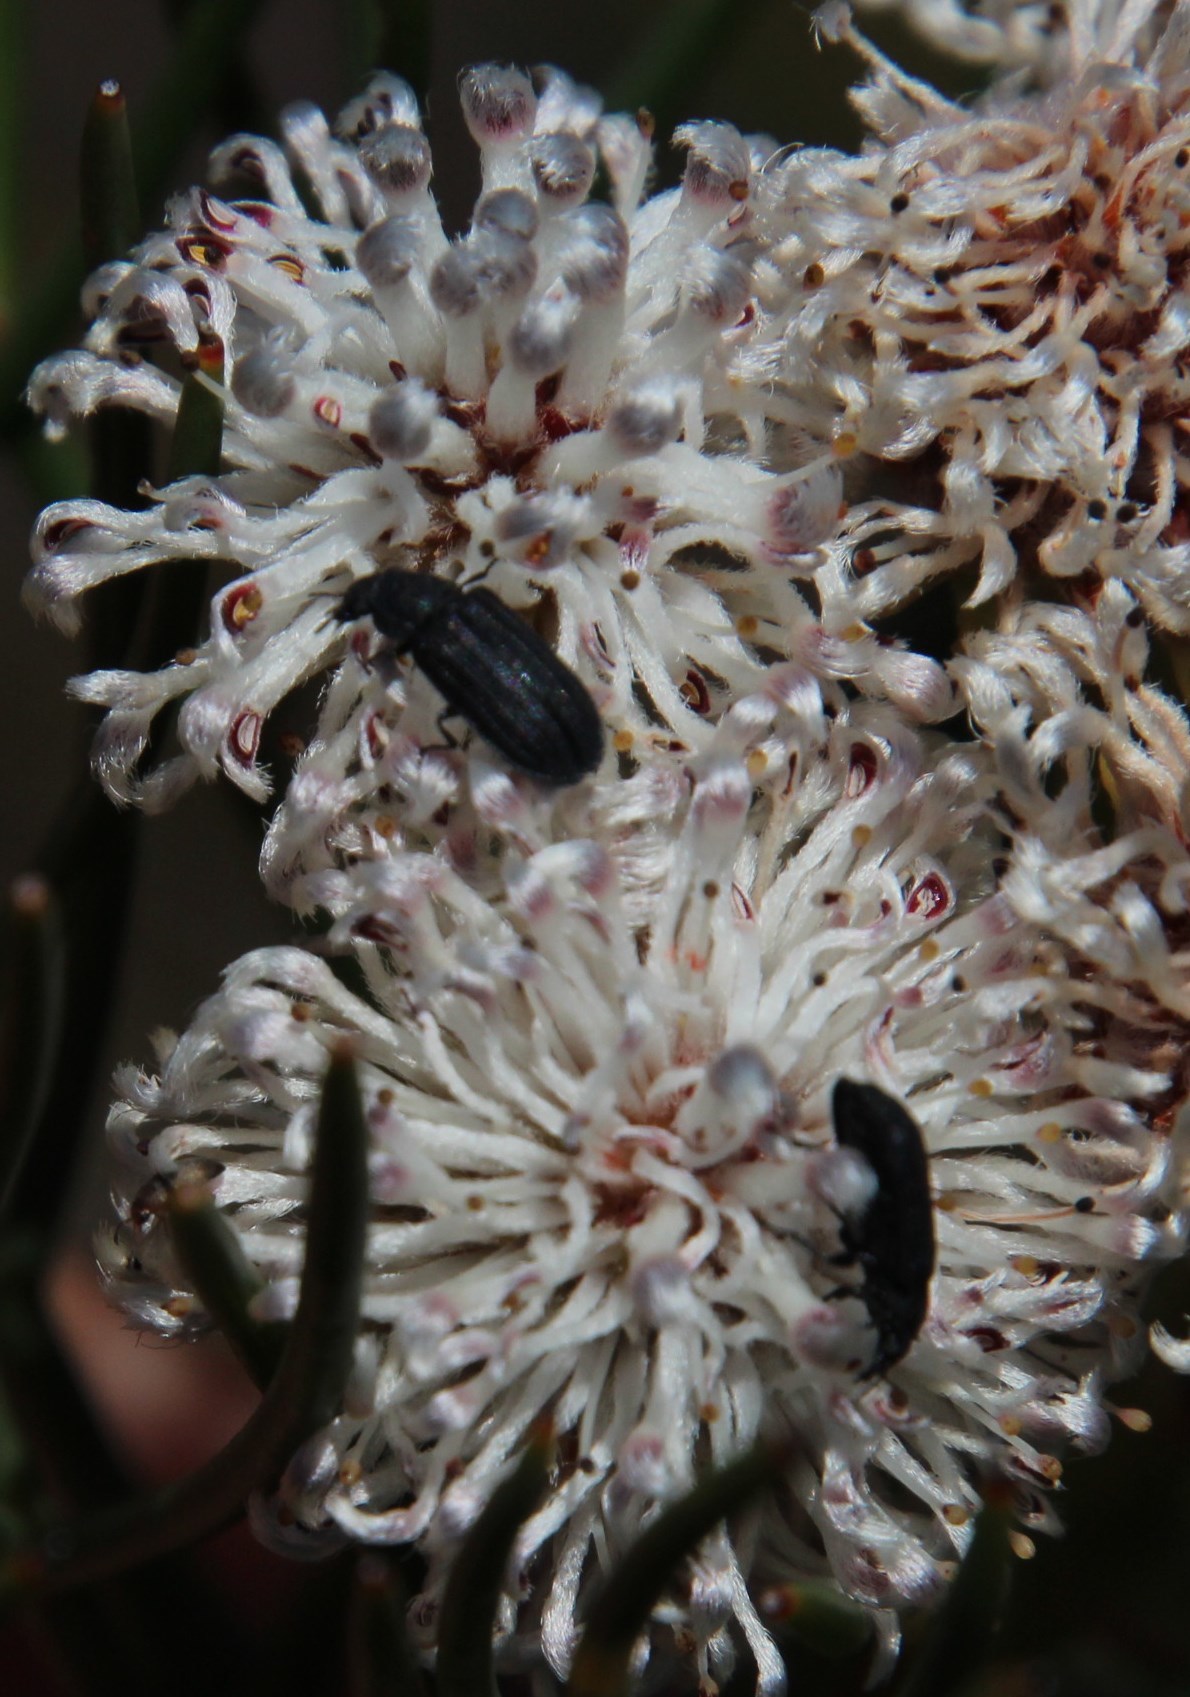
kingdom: Plantae
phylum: Tracheophyta
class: Magnoliopsida
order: Proteales
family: Proteaceae
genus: Serruria
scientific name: Serruria triternata
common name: Tulbagh spiderhead
